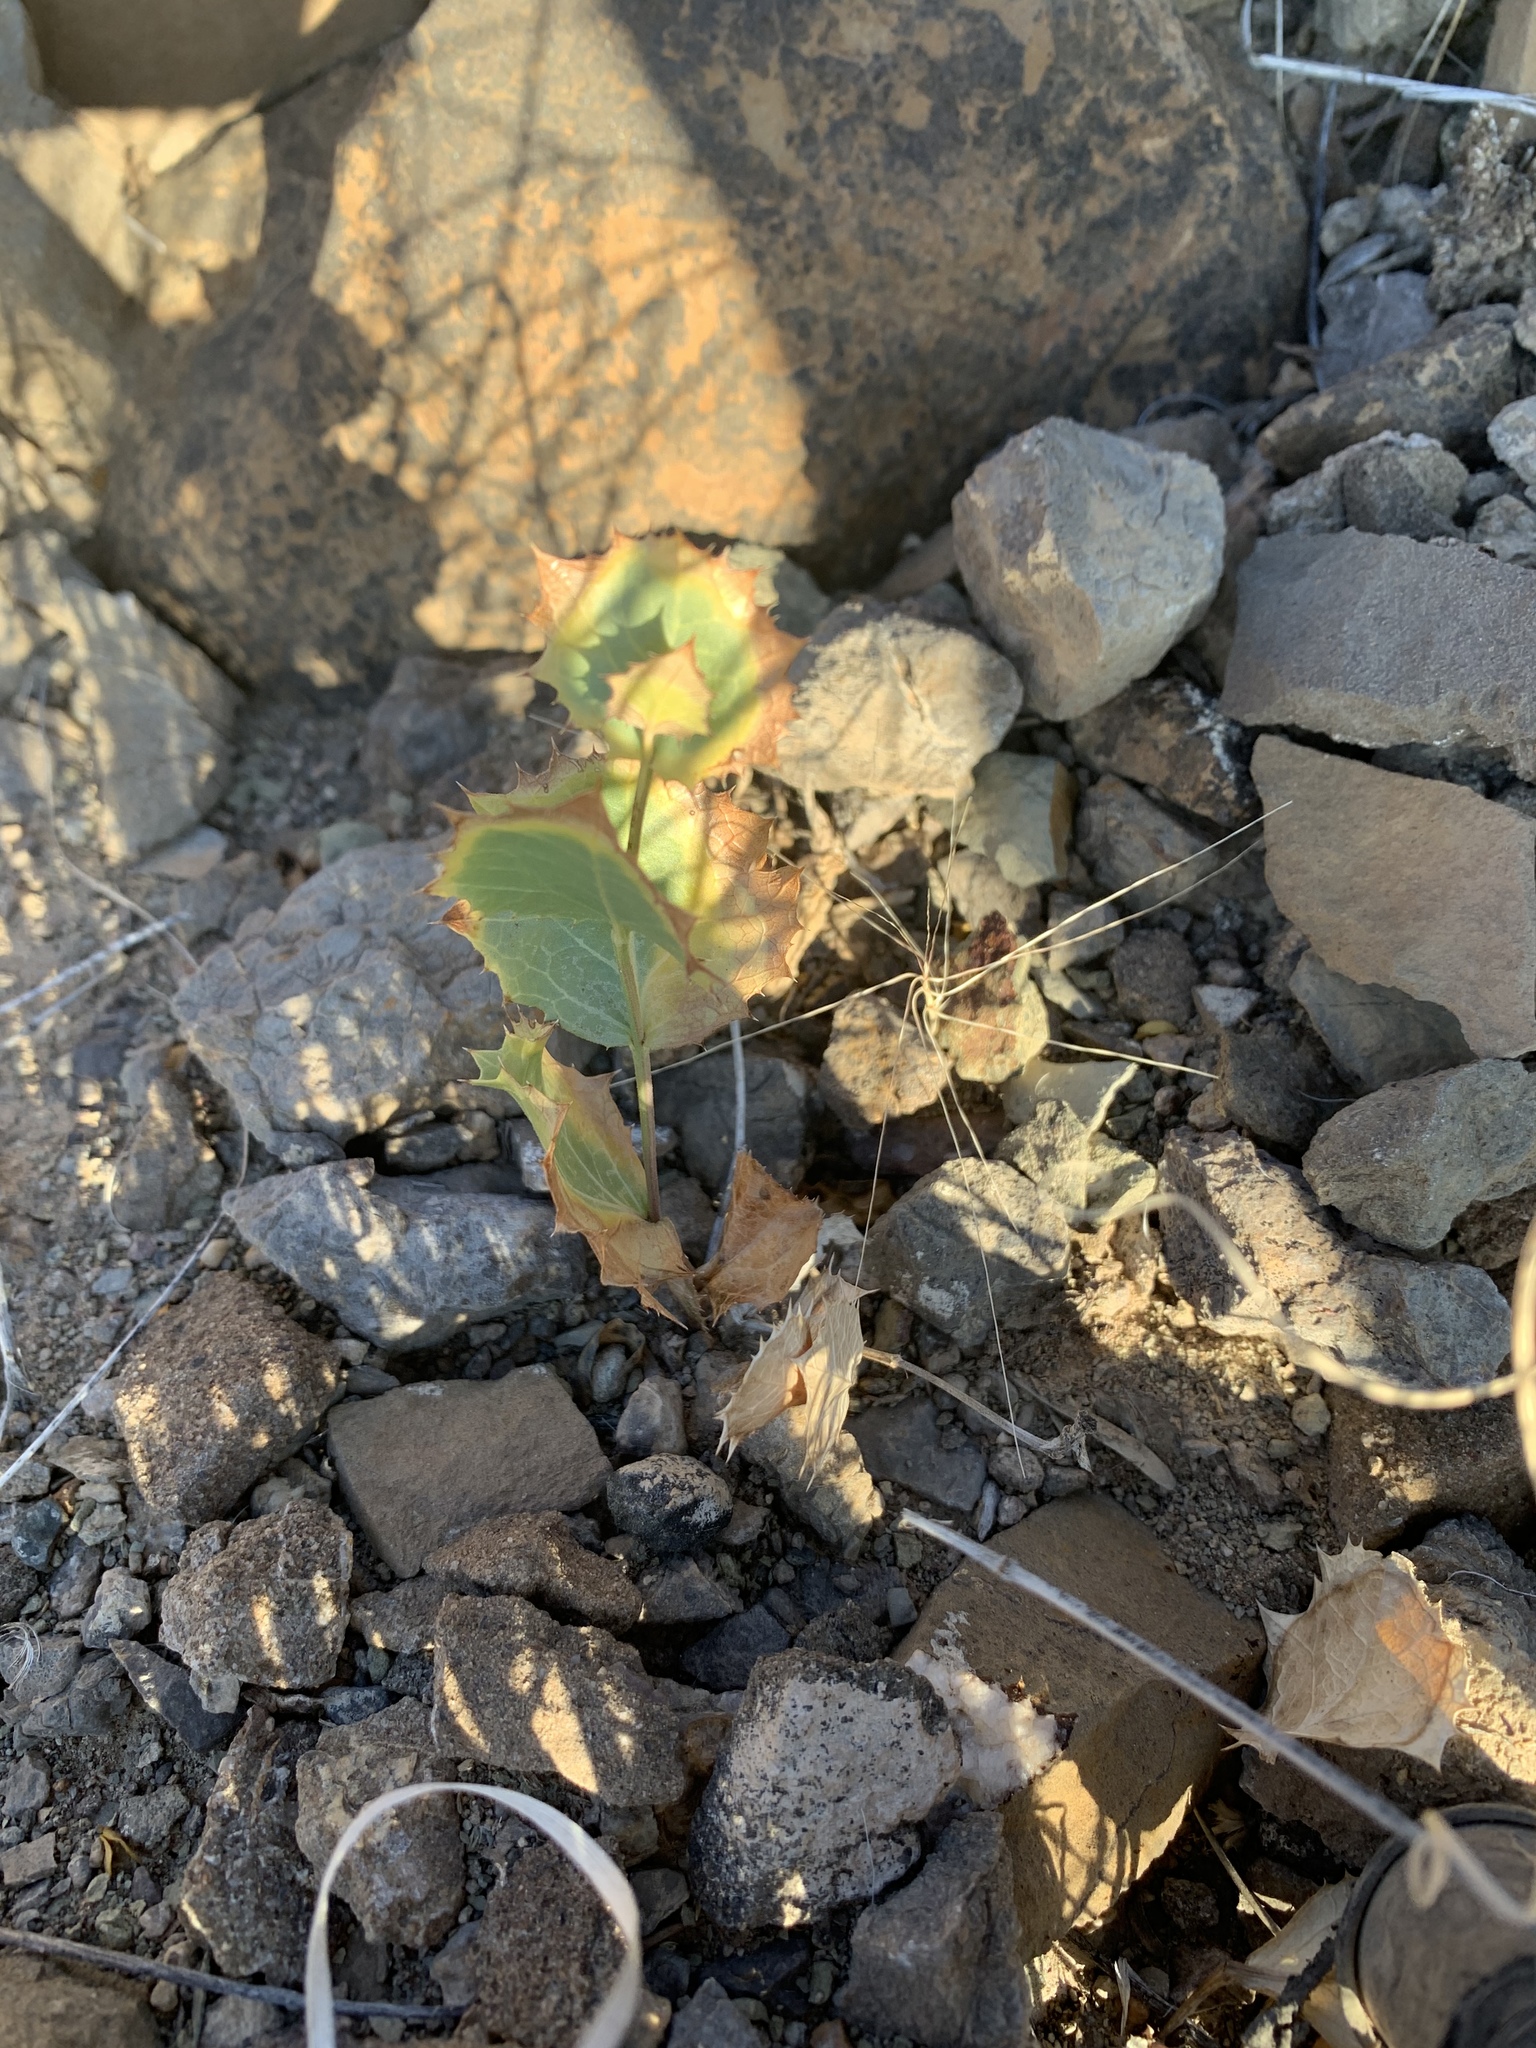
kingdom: Plantae
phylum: Tracheophyta
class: Magnoliopsida
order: Asterales
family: Asteraceae
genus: Acourtia
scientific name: Acourtia nana
